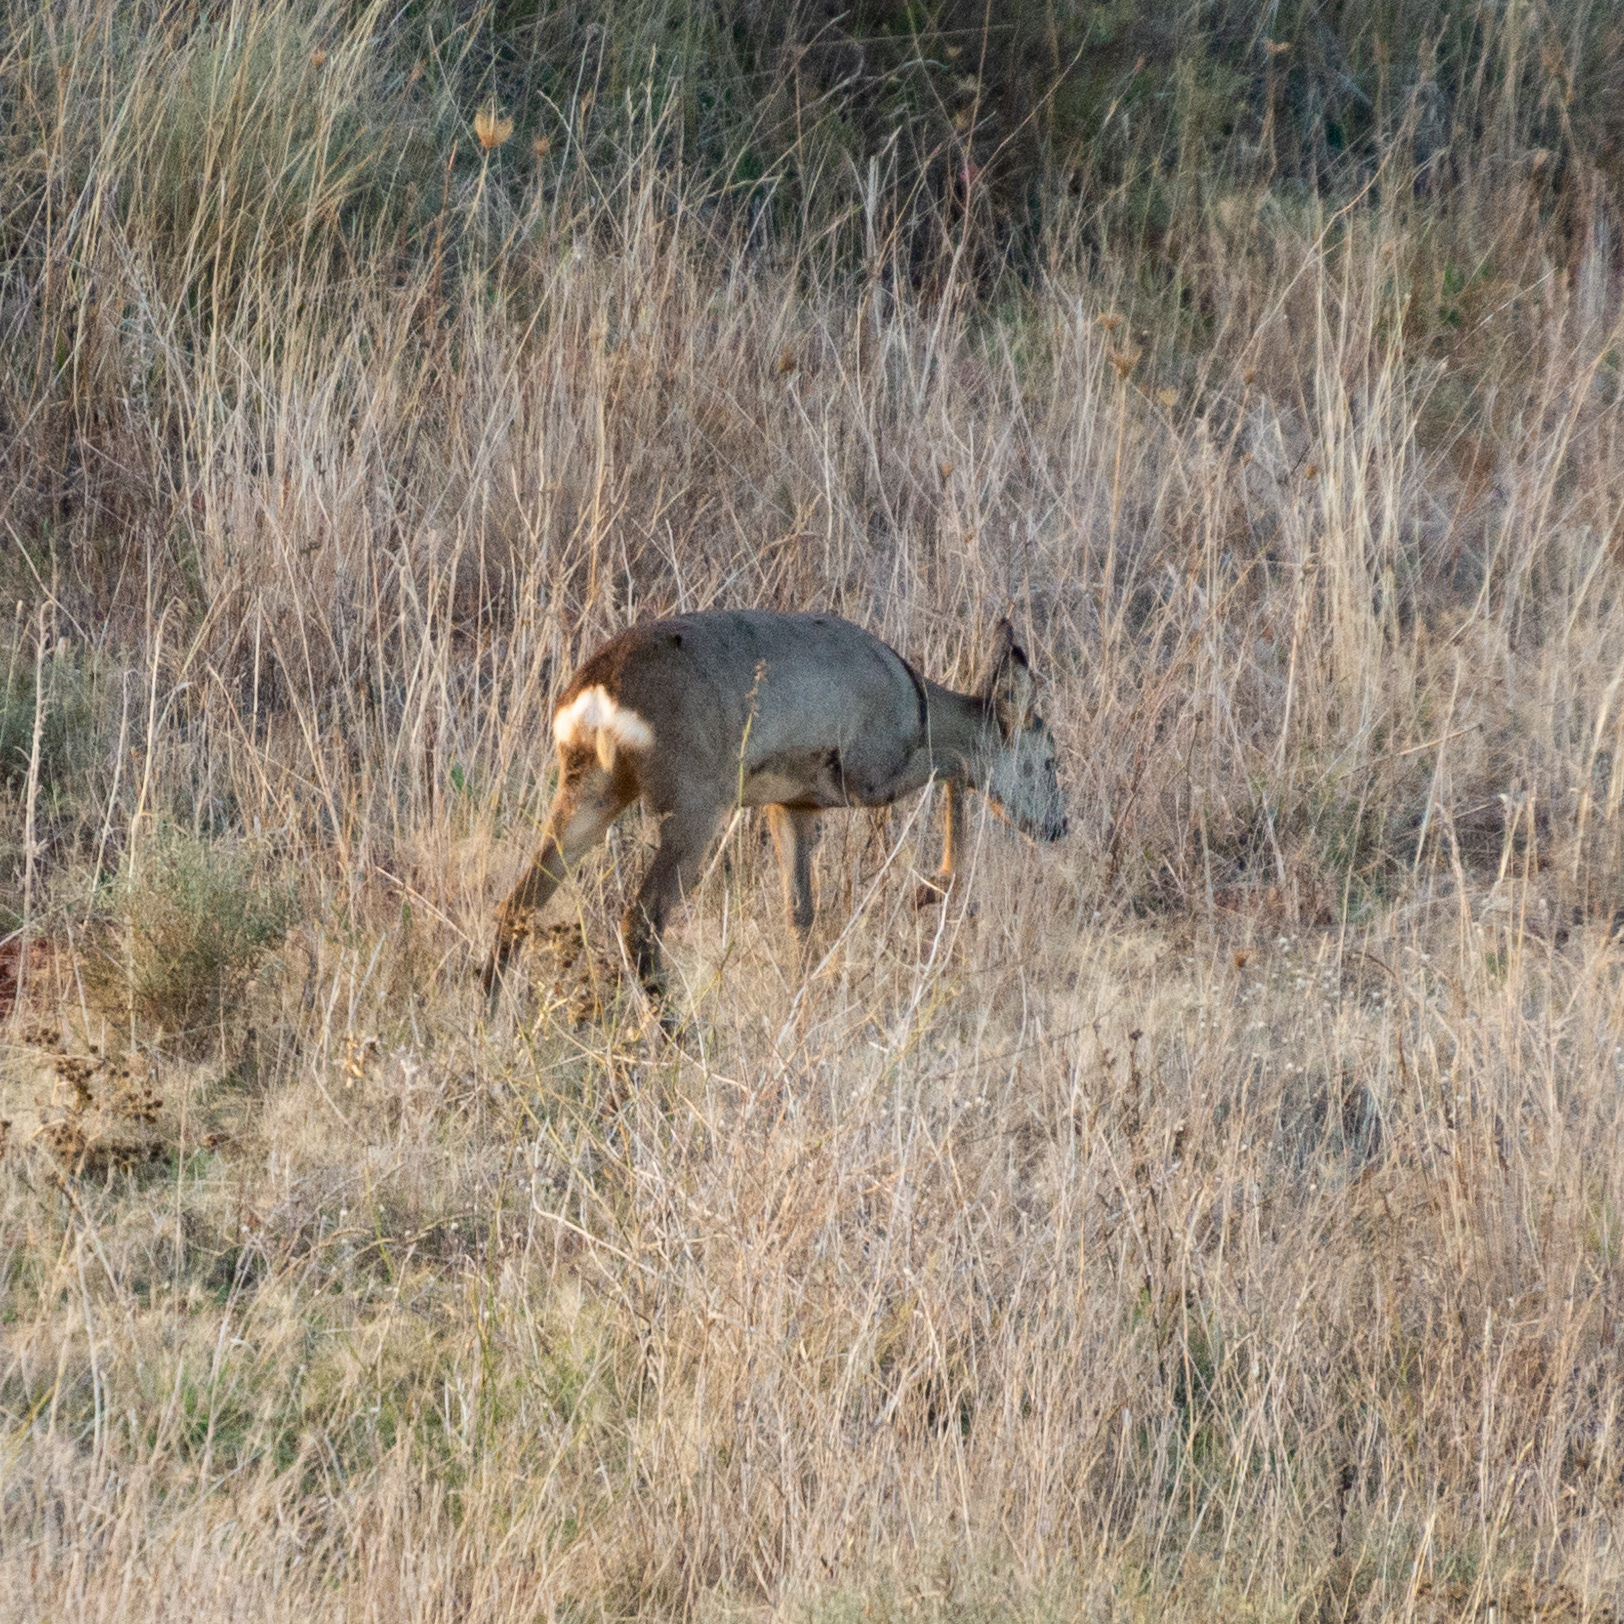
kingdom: Animalia
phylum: Chordata
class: Mammalia
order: Artiodactyla
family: Cervidae
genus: Capreolus
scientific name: Capreolus capreolus
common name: Western roe deer
